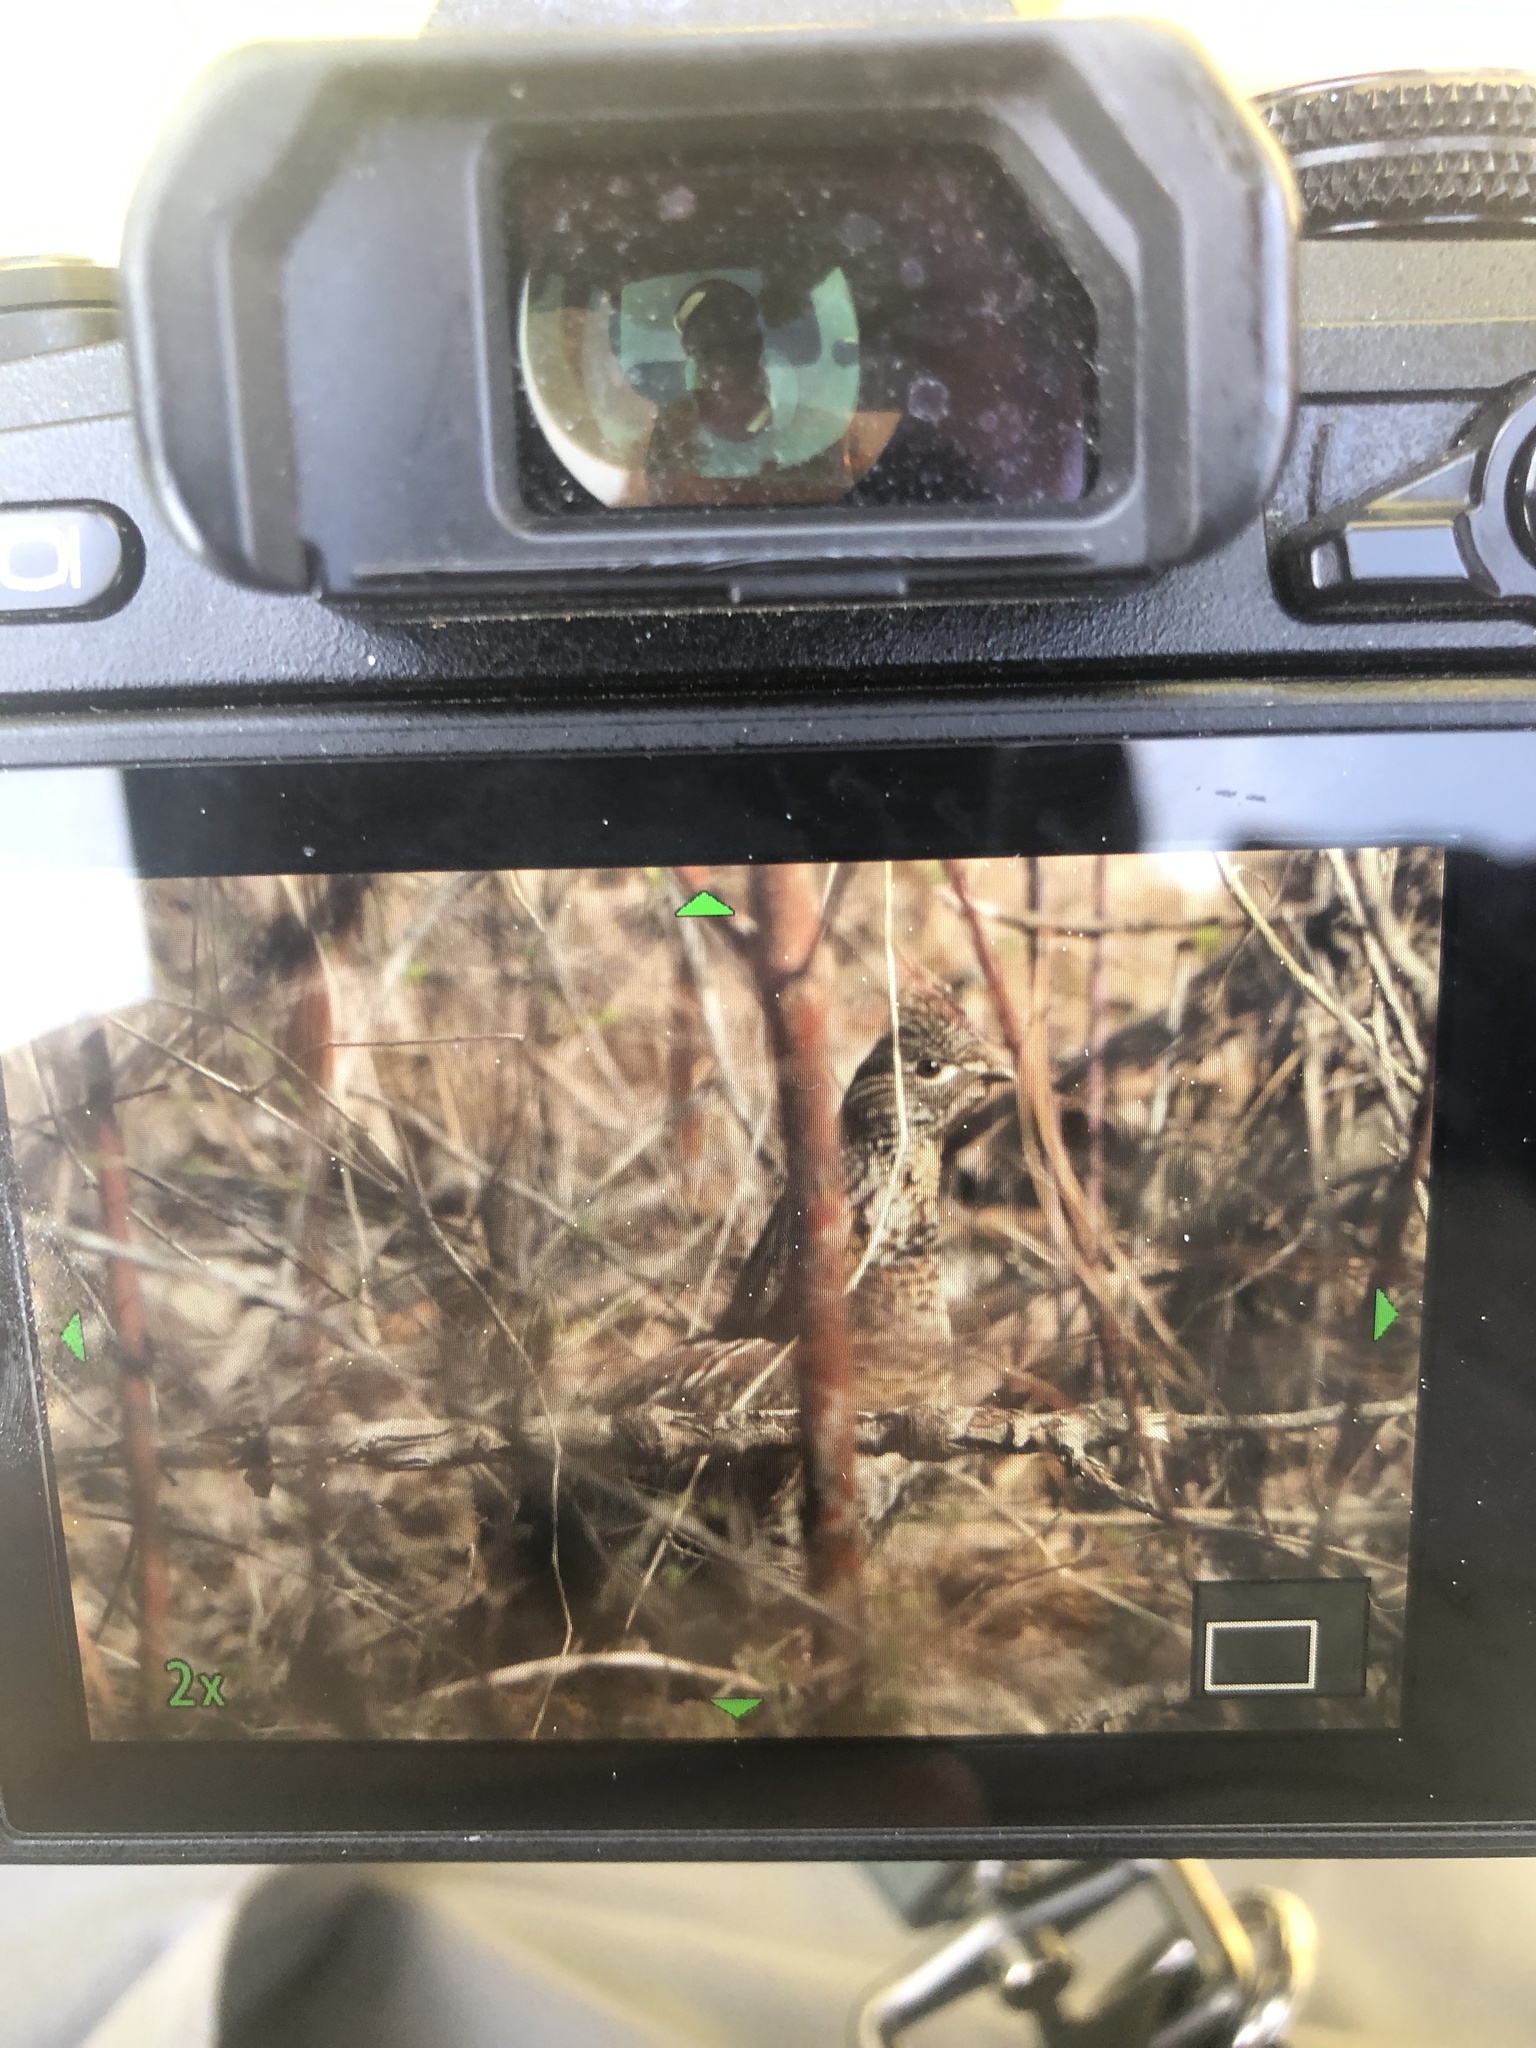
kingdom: Animalia
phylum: Chordata
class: Aves
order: Galliformes
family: Phasianidae
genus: Bonasa
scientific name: Bonasa umbellus
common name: Ruffed grouse
